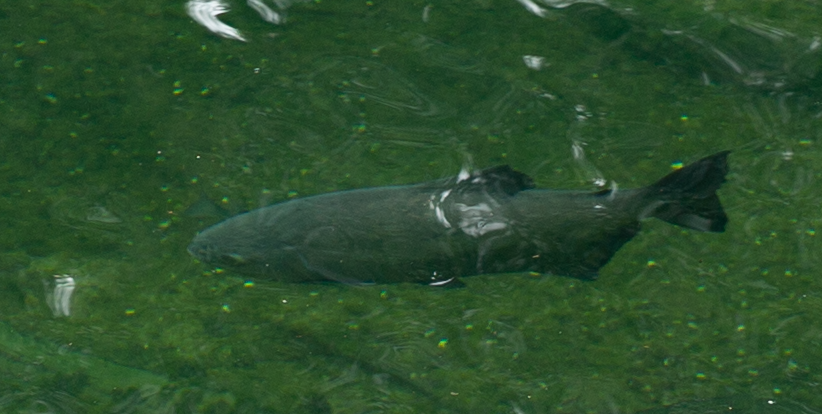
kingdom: Animalia
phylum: Chordata
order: Characiformes
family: Serrasalmidae
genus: Piaractus
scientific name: Piaractus brachypomus
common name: Cachama
